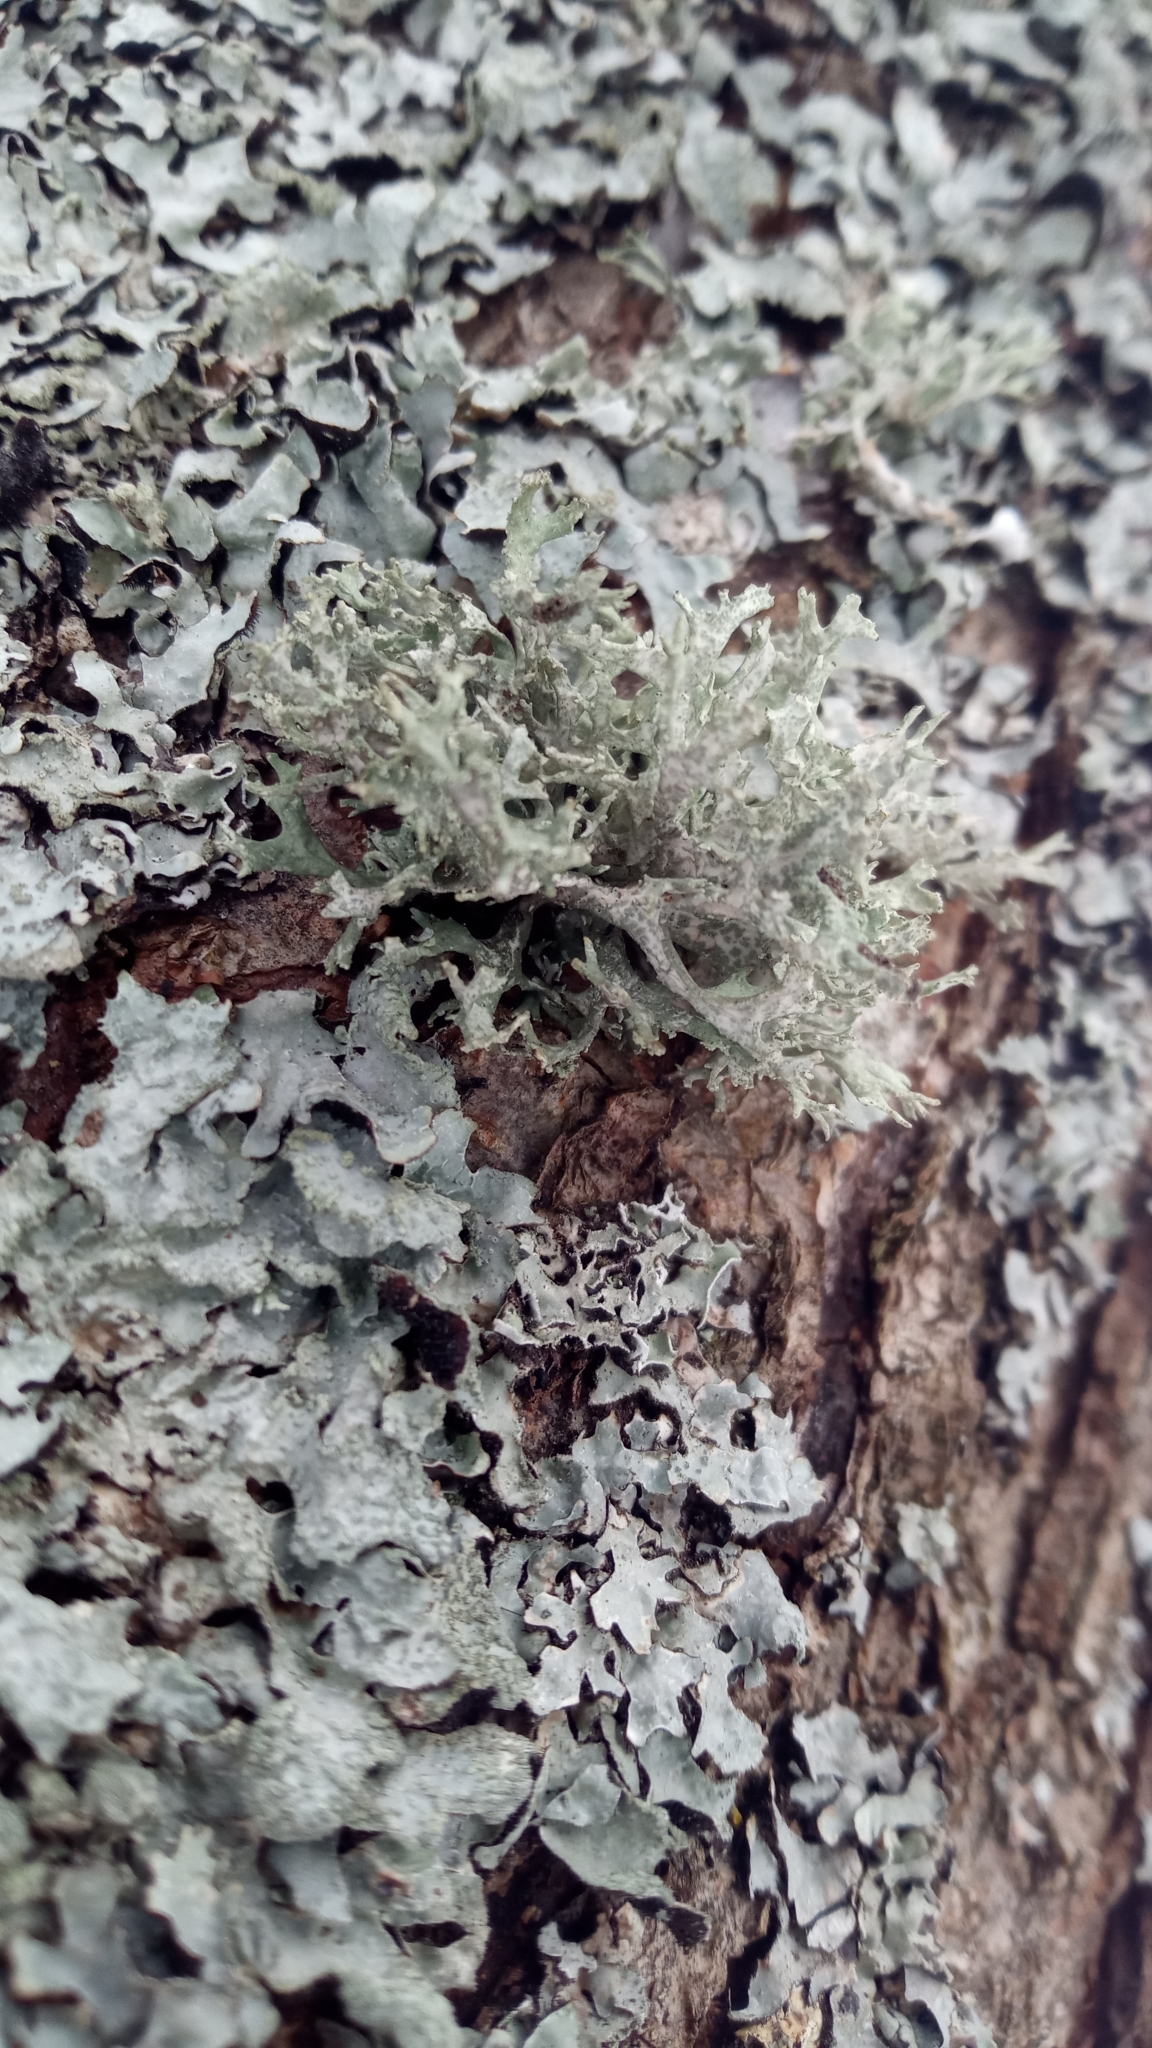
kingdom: Fungi
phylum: Ascomycota
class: Lecanoromycetes
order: Lecanorales
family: Parmeliaceae
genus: Evernia
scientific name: Evernia prunastri
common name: Oak moss
